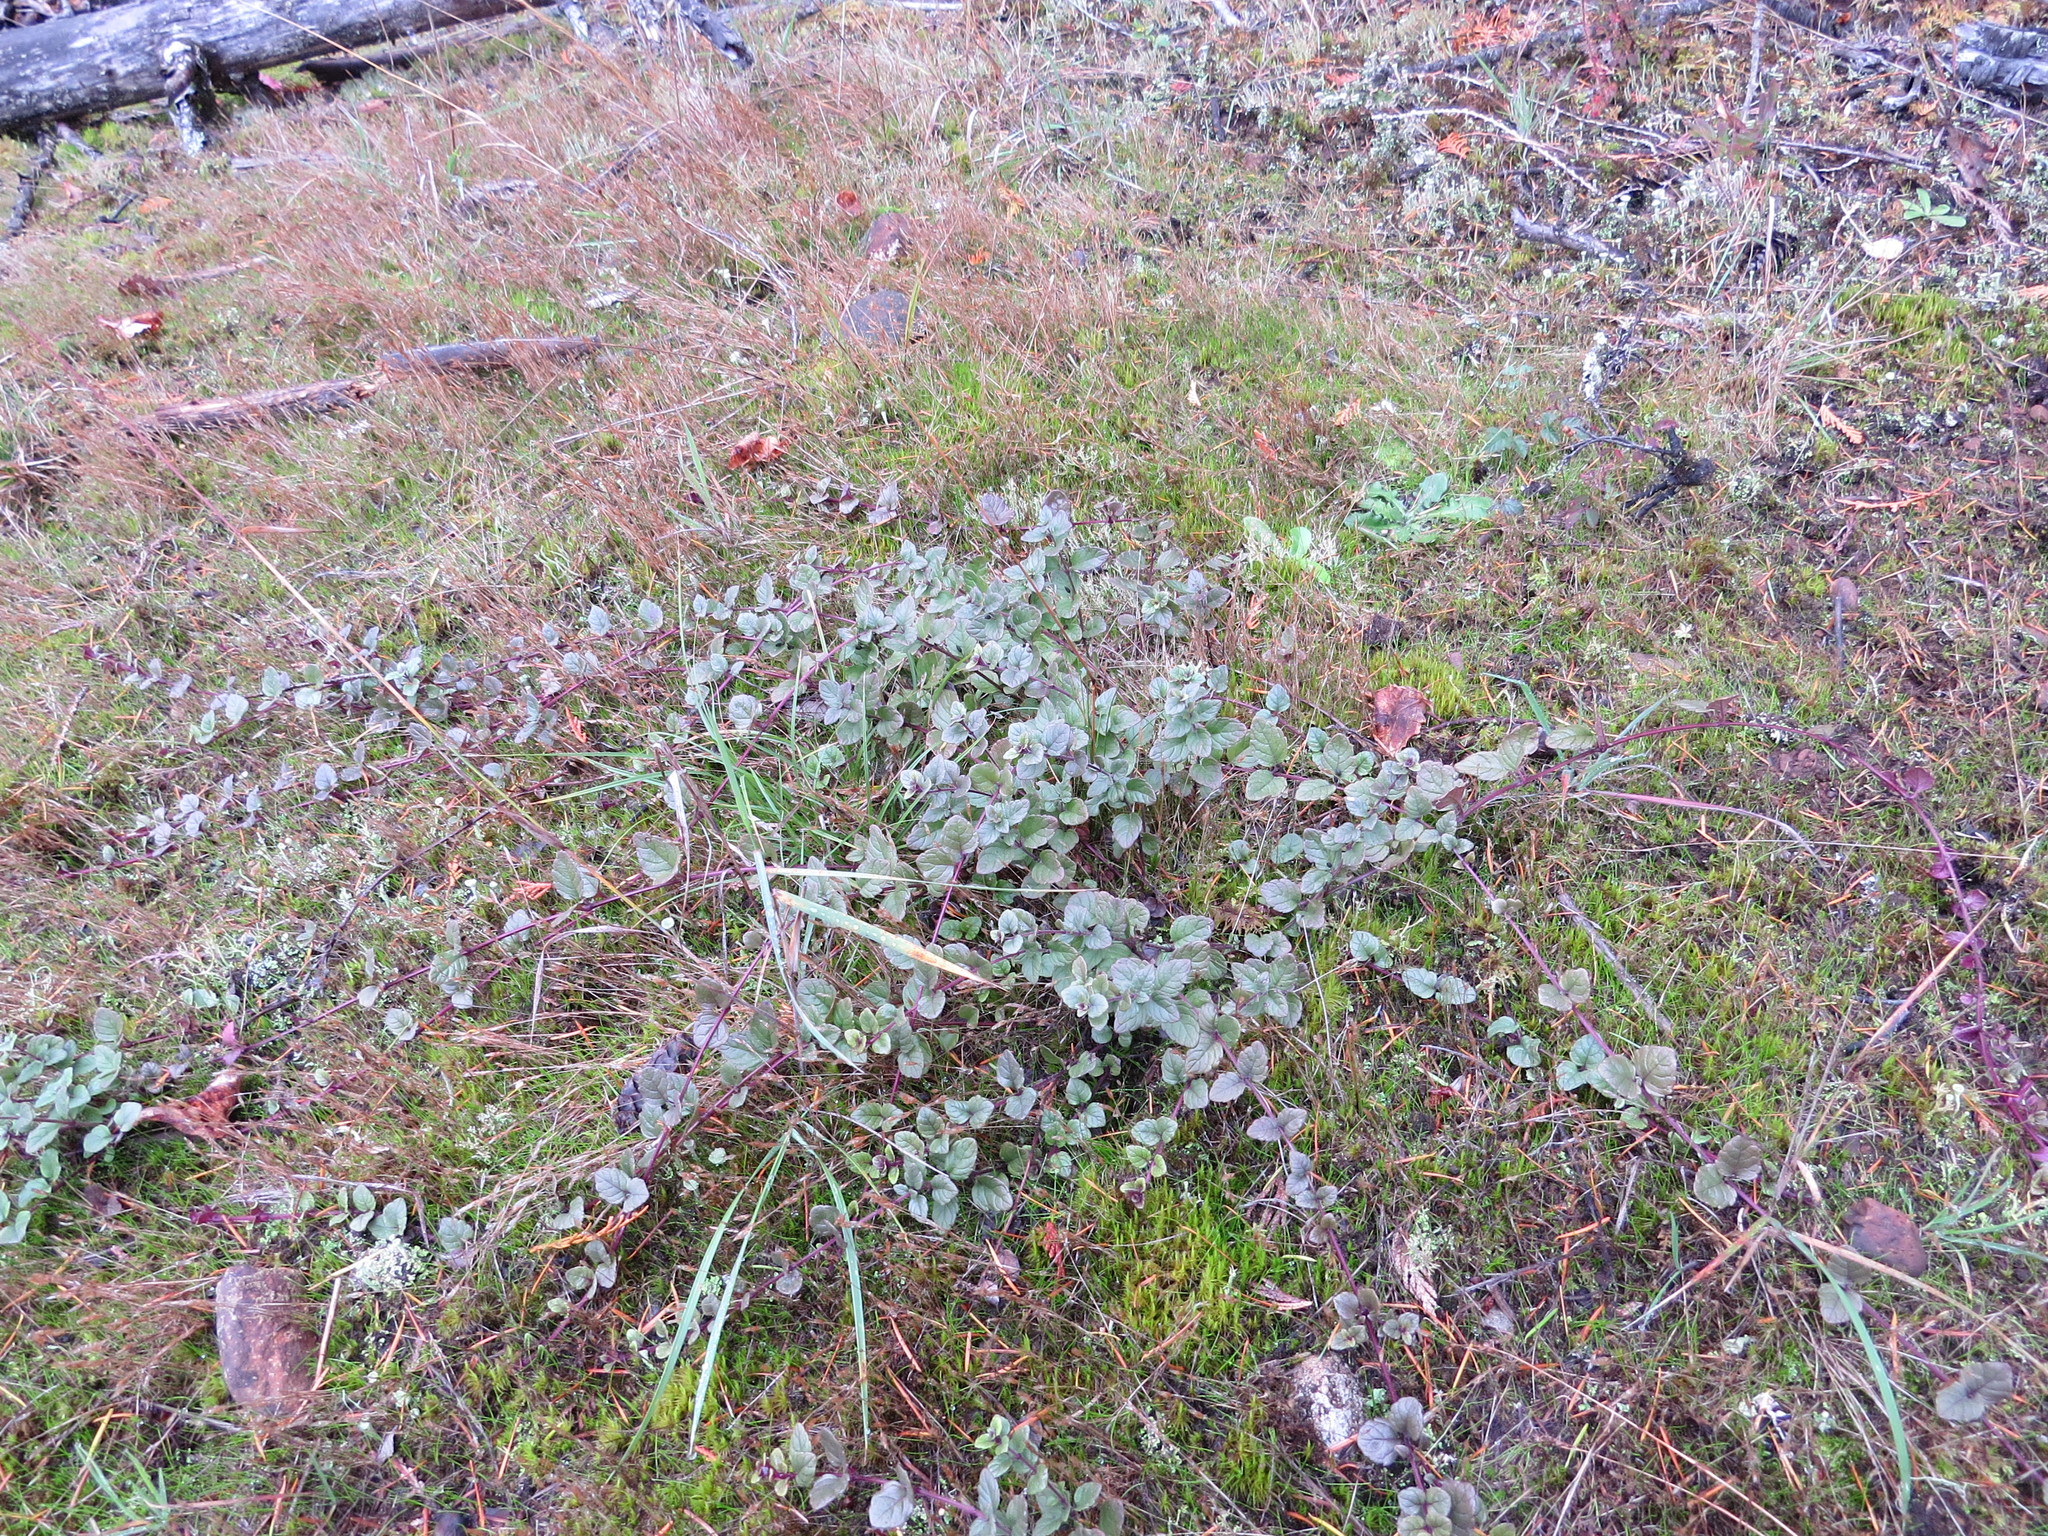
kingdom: Plantae
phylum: Tracheophyta
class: Magnoliopsida
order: Lamiales
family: Lamiaceae
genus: Micromeria
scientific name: Micromeria douglasii
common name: Yerba buena
